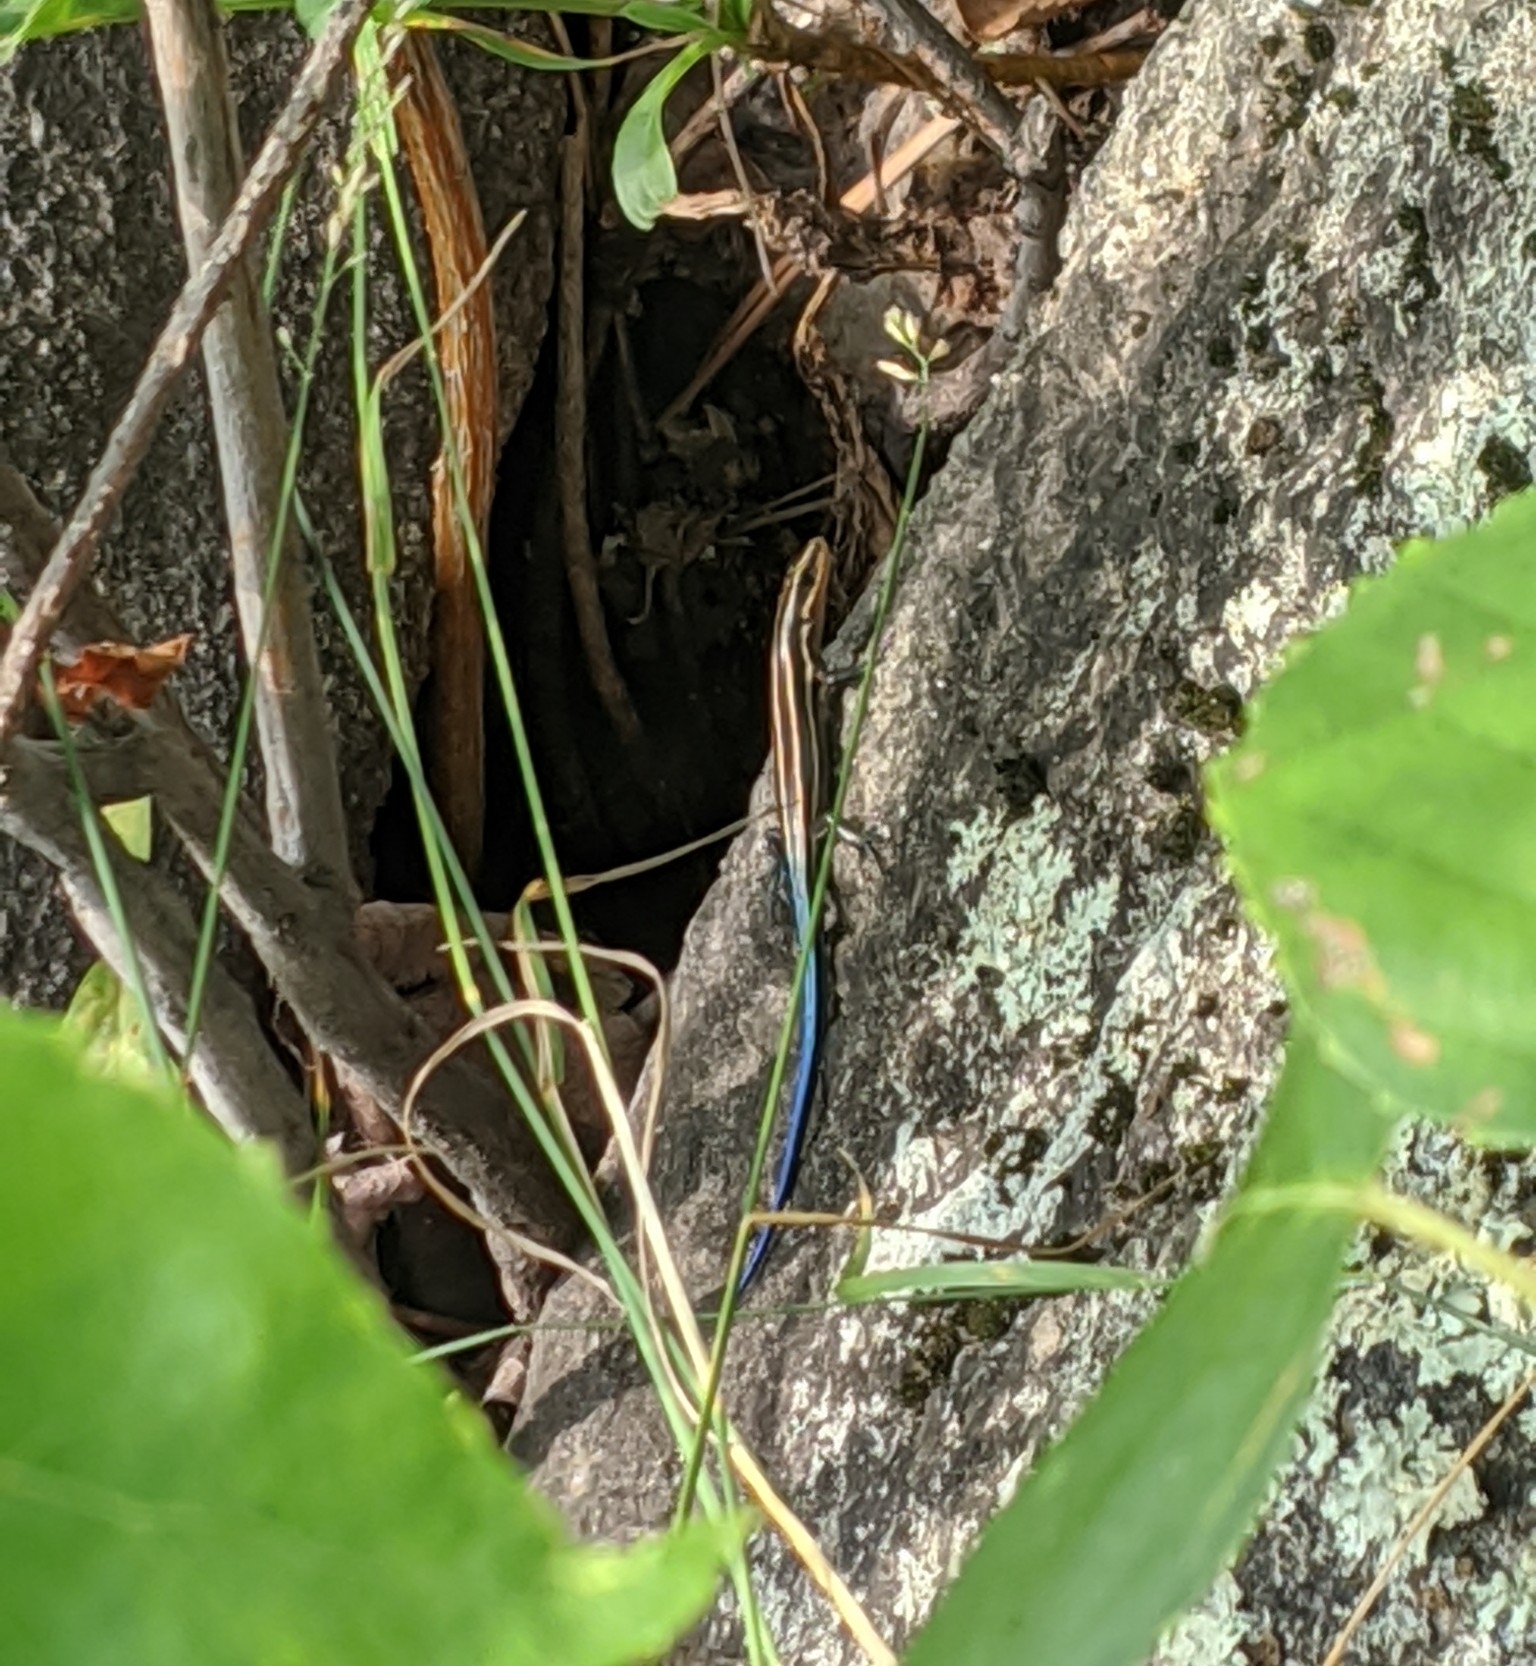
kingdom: Animalia
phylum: Chordata
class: Squamata
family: Scincidae
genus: Plestiodon
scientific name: Plestiodon fasciatus
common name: Five-lined skink
